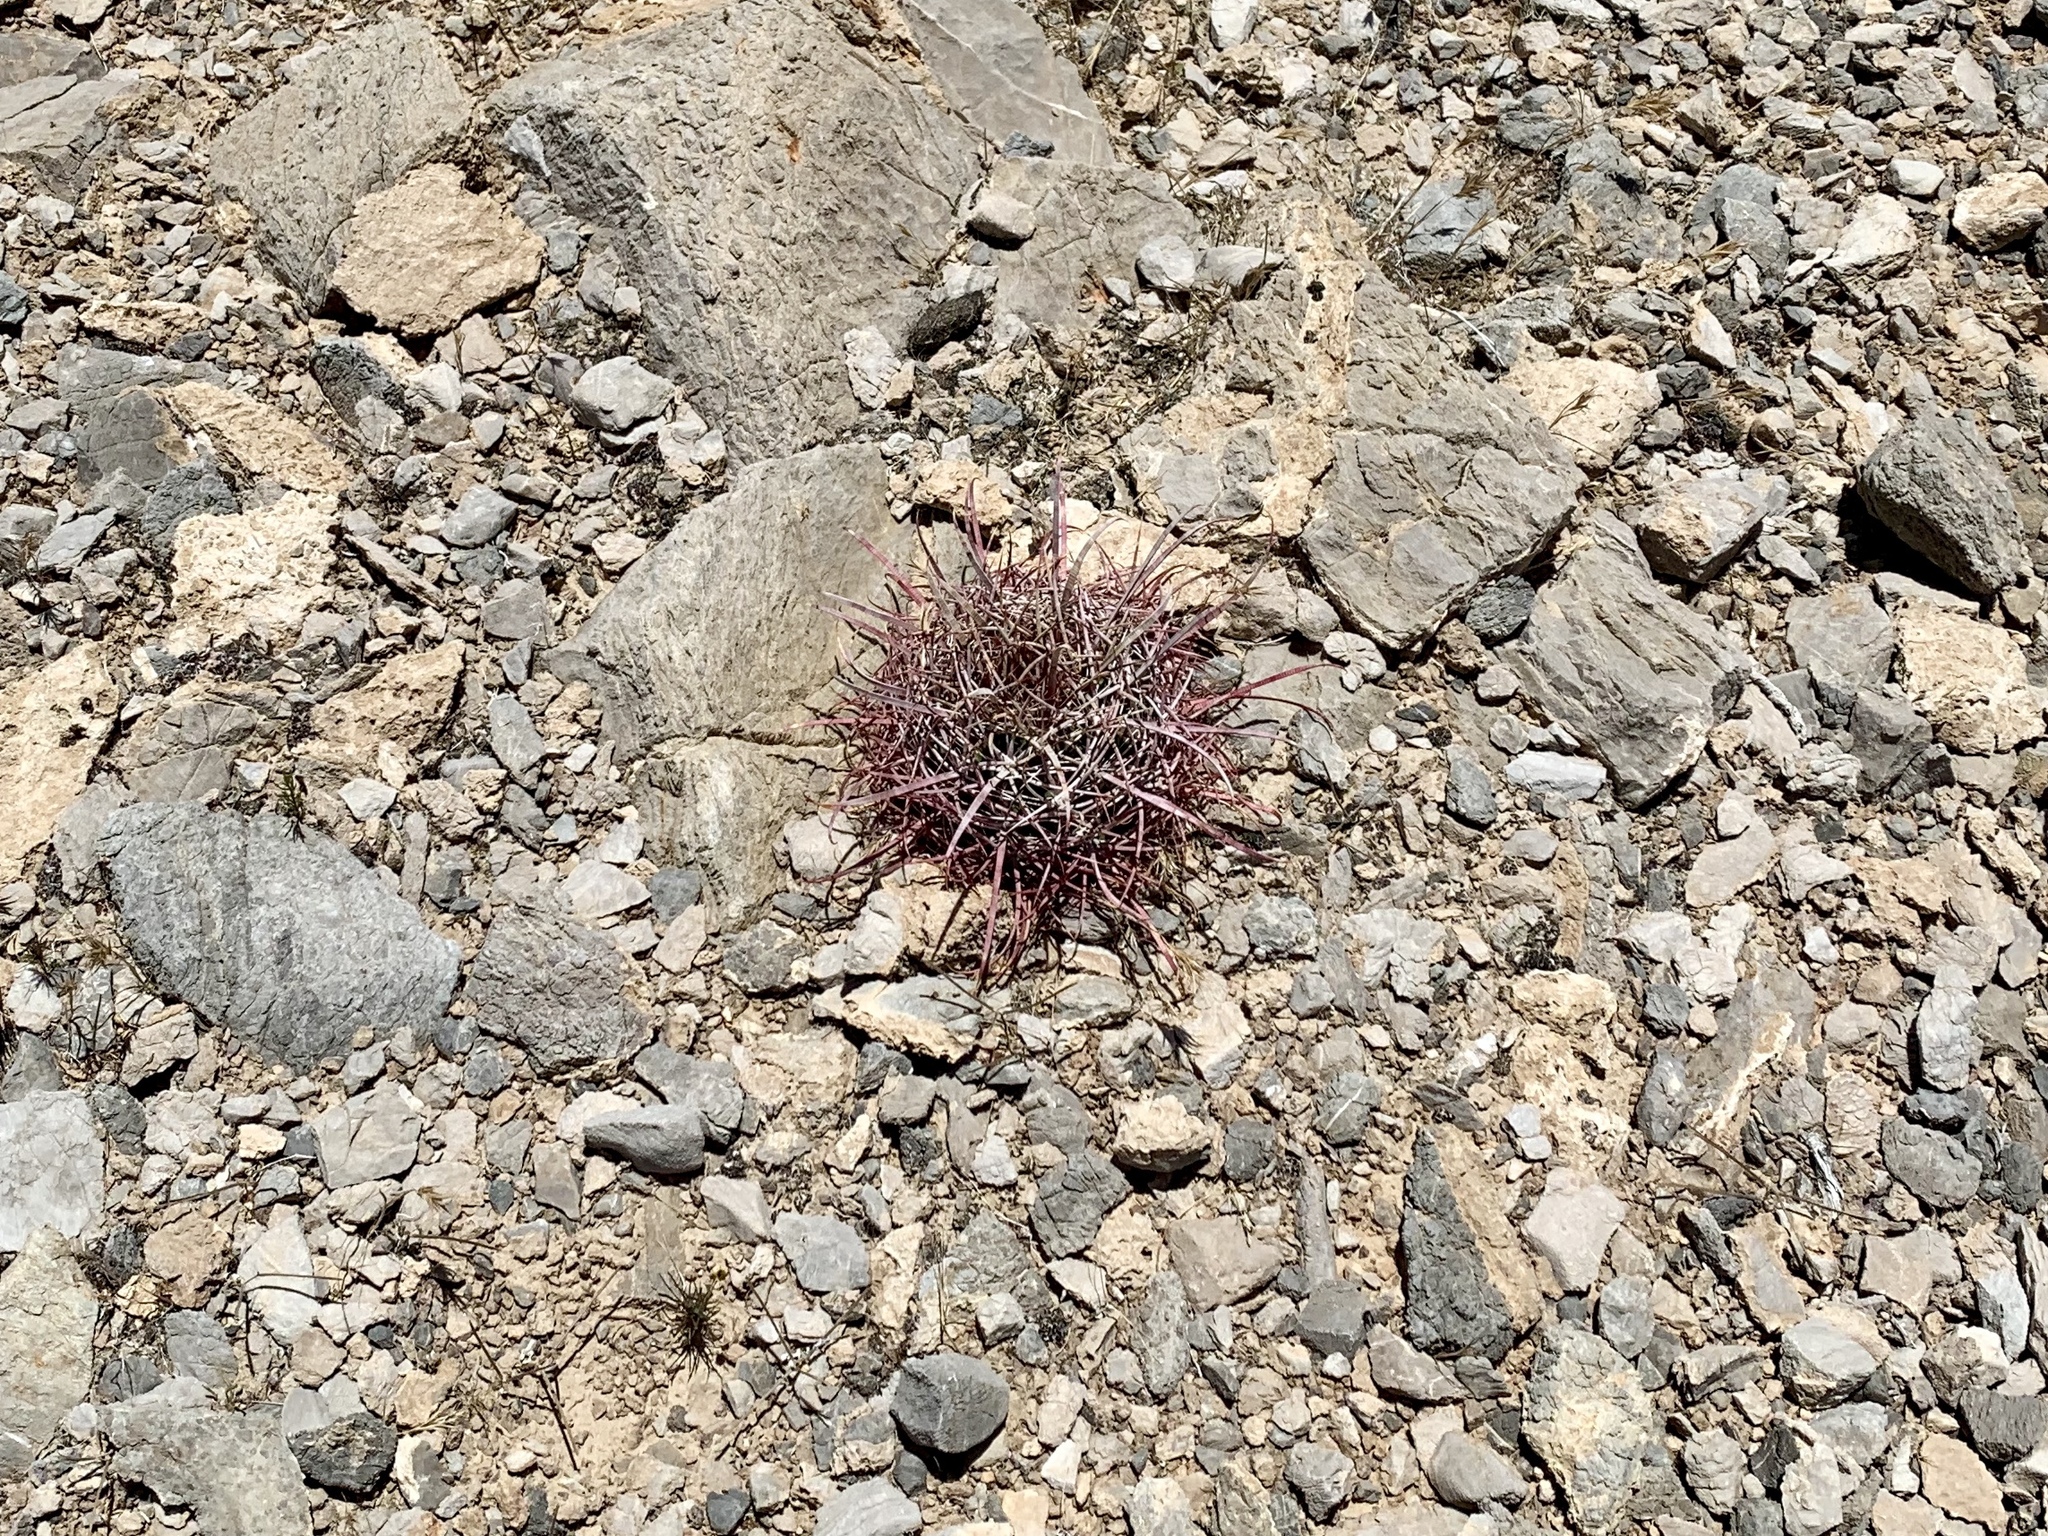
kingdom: Plantae
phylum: Tracheophyta
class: Magnoliopsida
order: Caryophyllales
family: Cactaceae
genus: Ferocactus
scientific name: Ferocactus cylindraceus
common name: California barrel cactus
